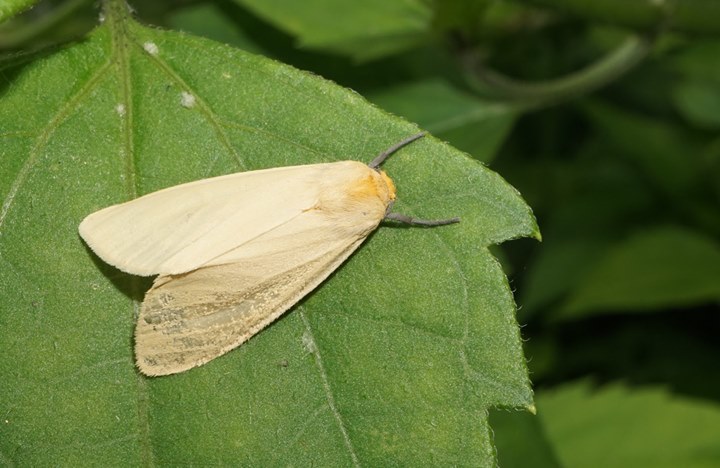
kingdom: Animalia
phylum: Arthropoda
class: Insecta
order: Lepidoptera
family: Erebidae
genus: Pareuchaetes
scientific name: Pareuchaetes insulata
